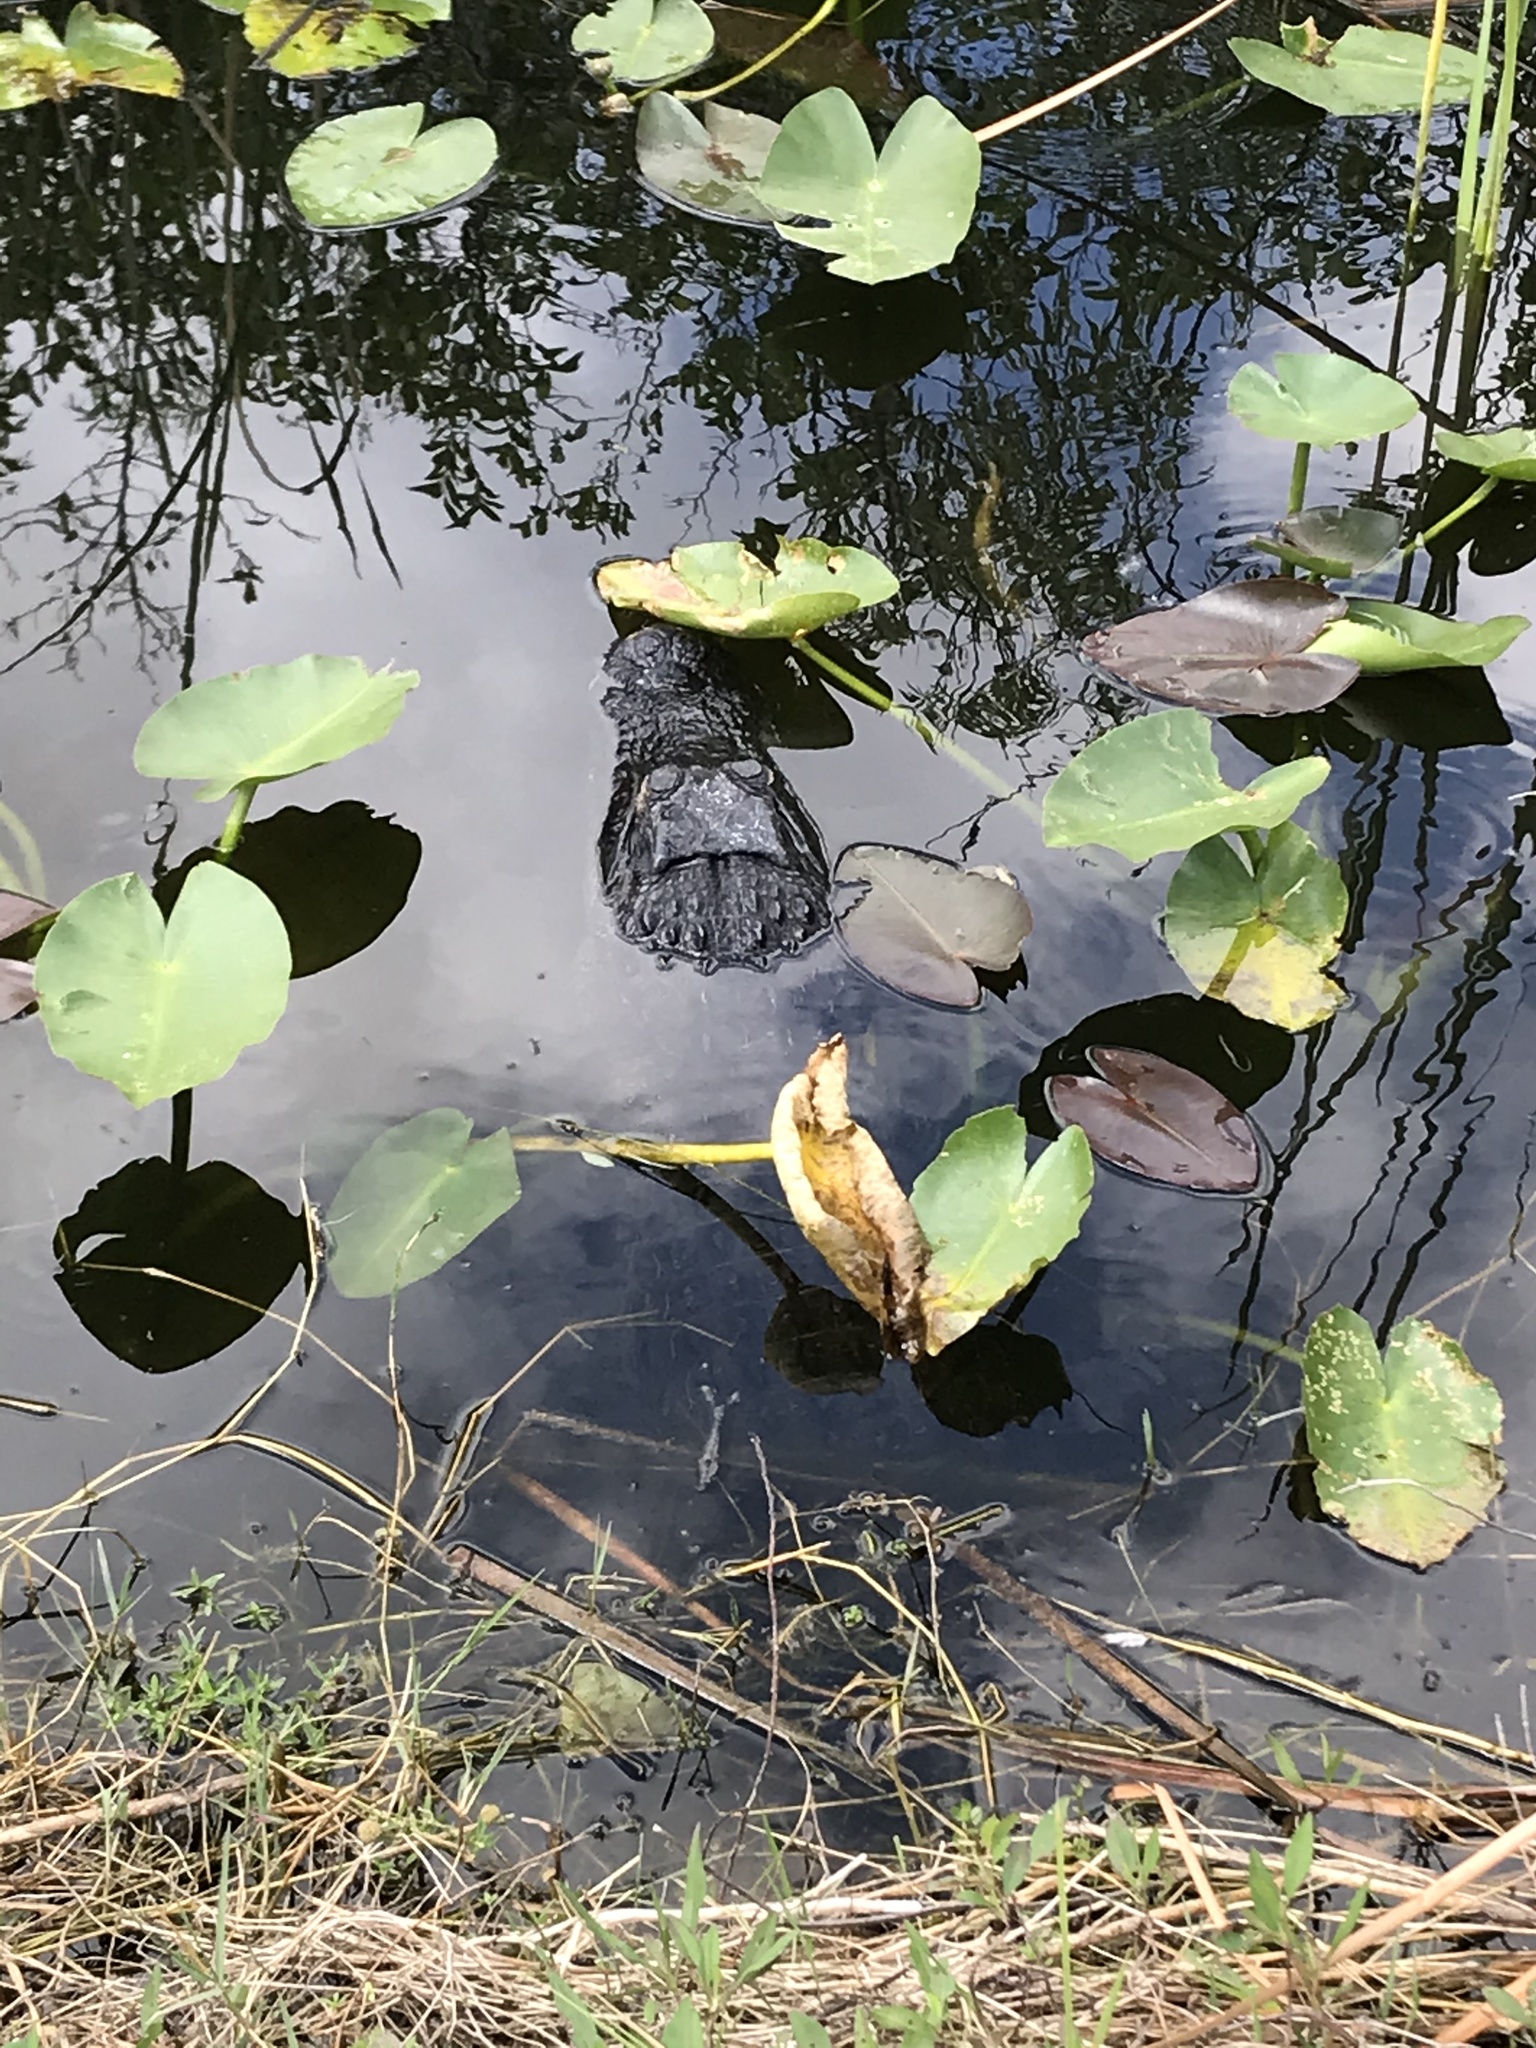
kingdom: Animalia
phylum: Chordata
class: Crocodylia
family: Alligatoridae
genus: Alligator
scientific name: Alligator mississippiensis
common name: American alligator
